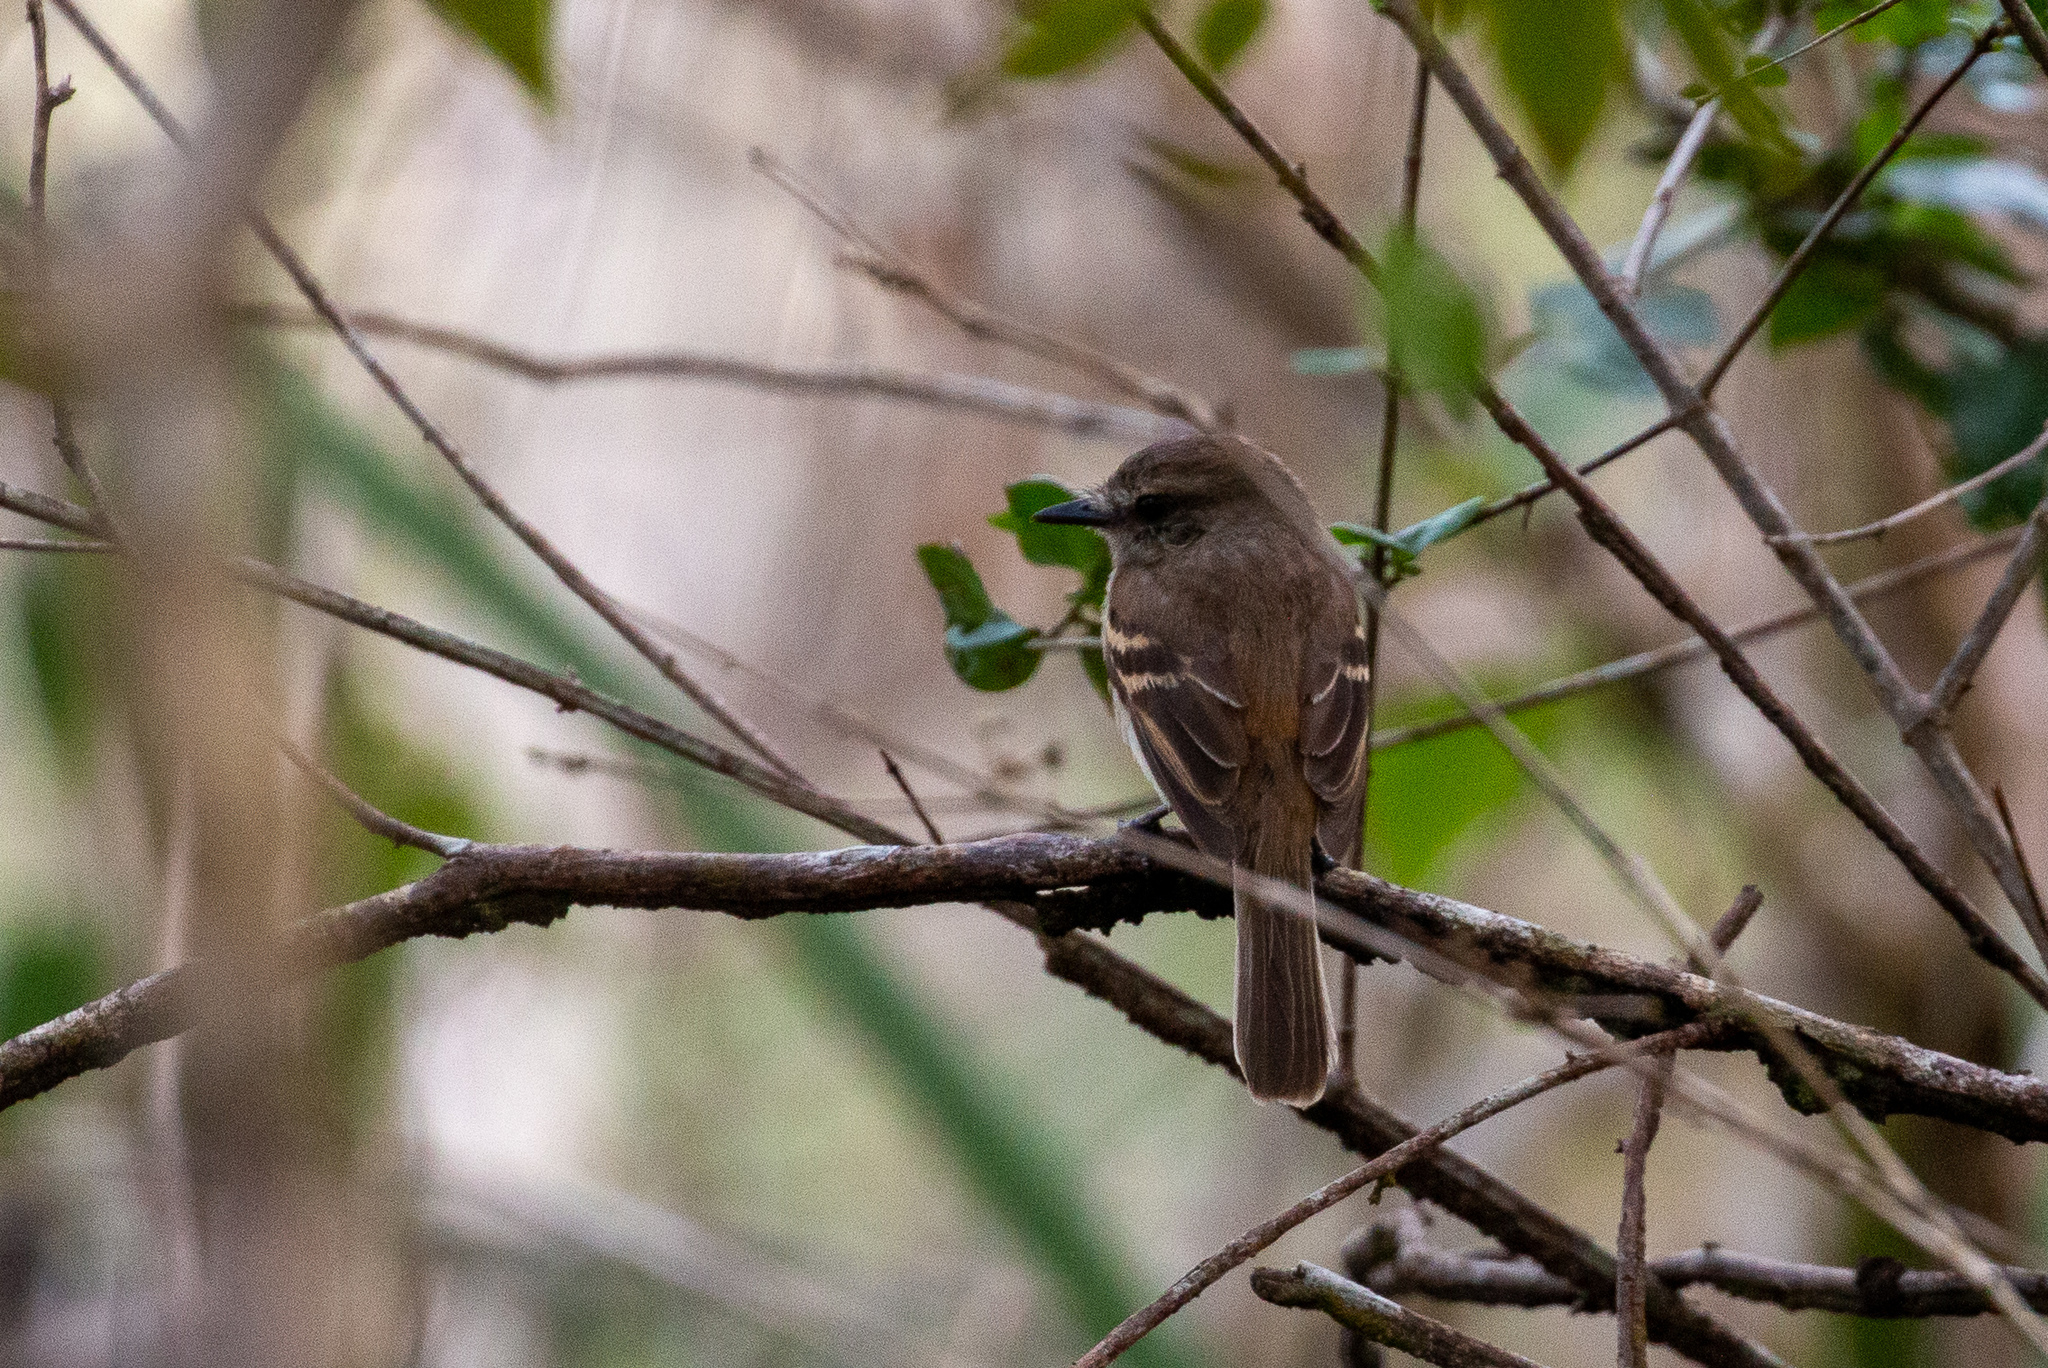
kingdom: Animalia
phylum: Chordata
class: Aves
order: Passeriformes
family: Tyrannidae
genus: Cnemotriccus
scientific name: Cnemotriccus fuscatus
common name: Fuscous flycatcher
